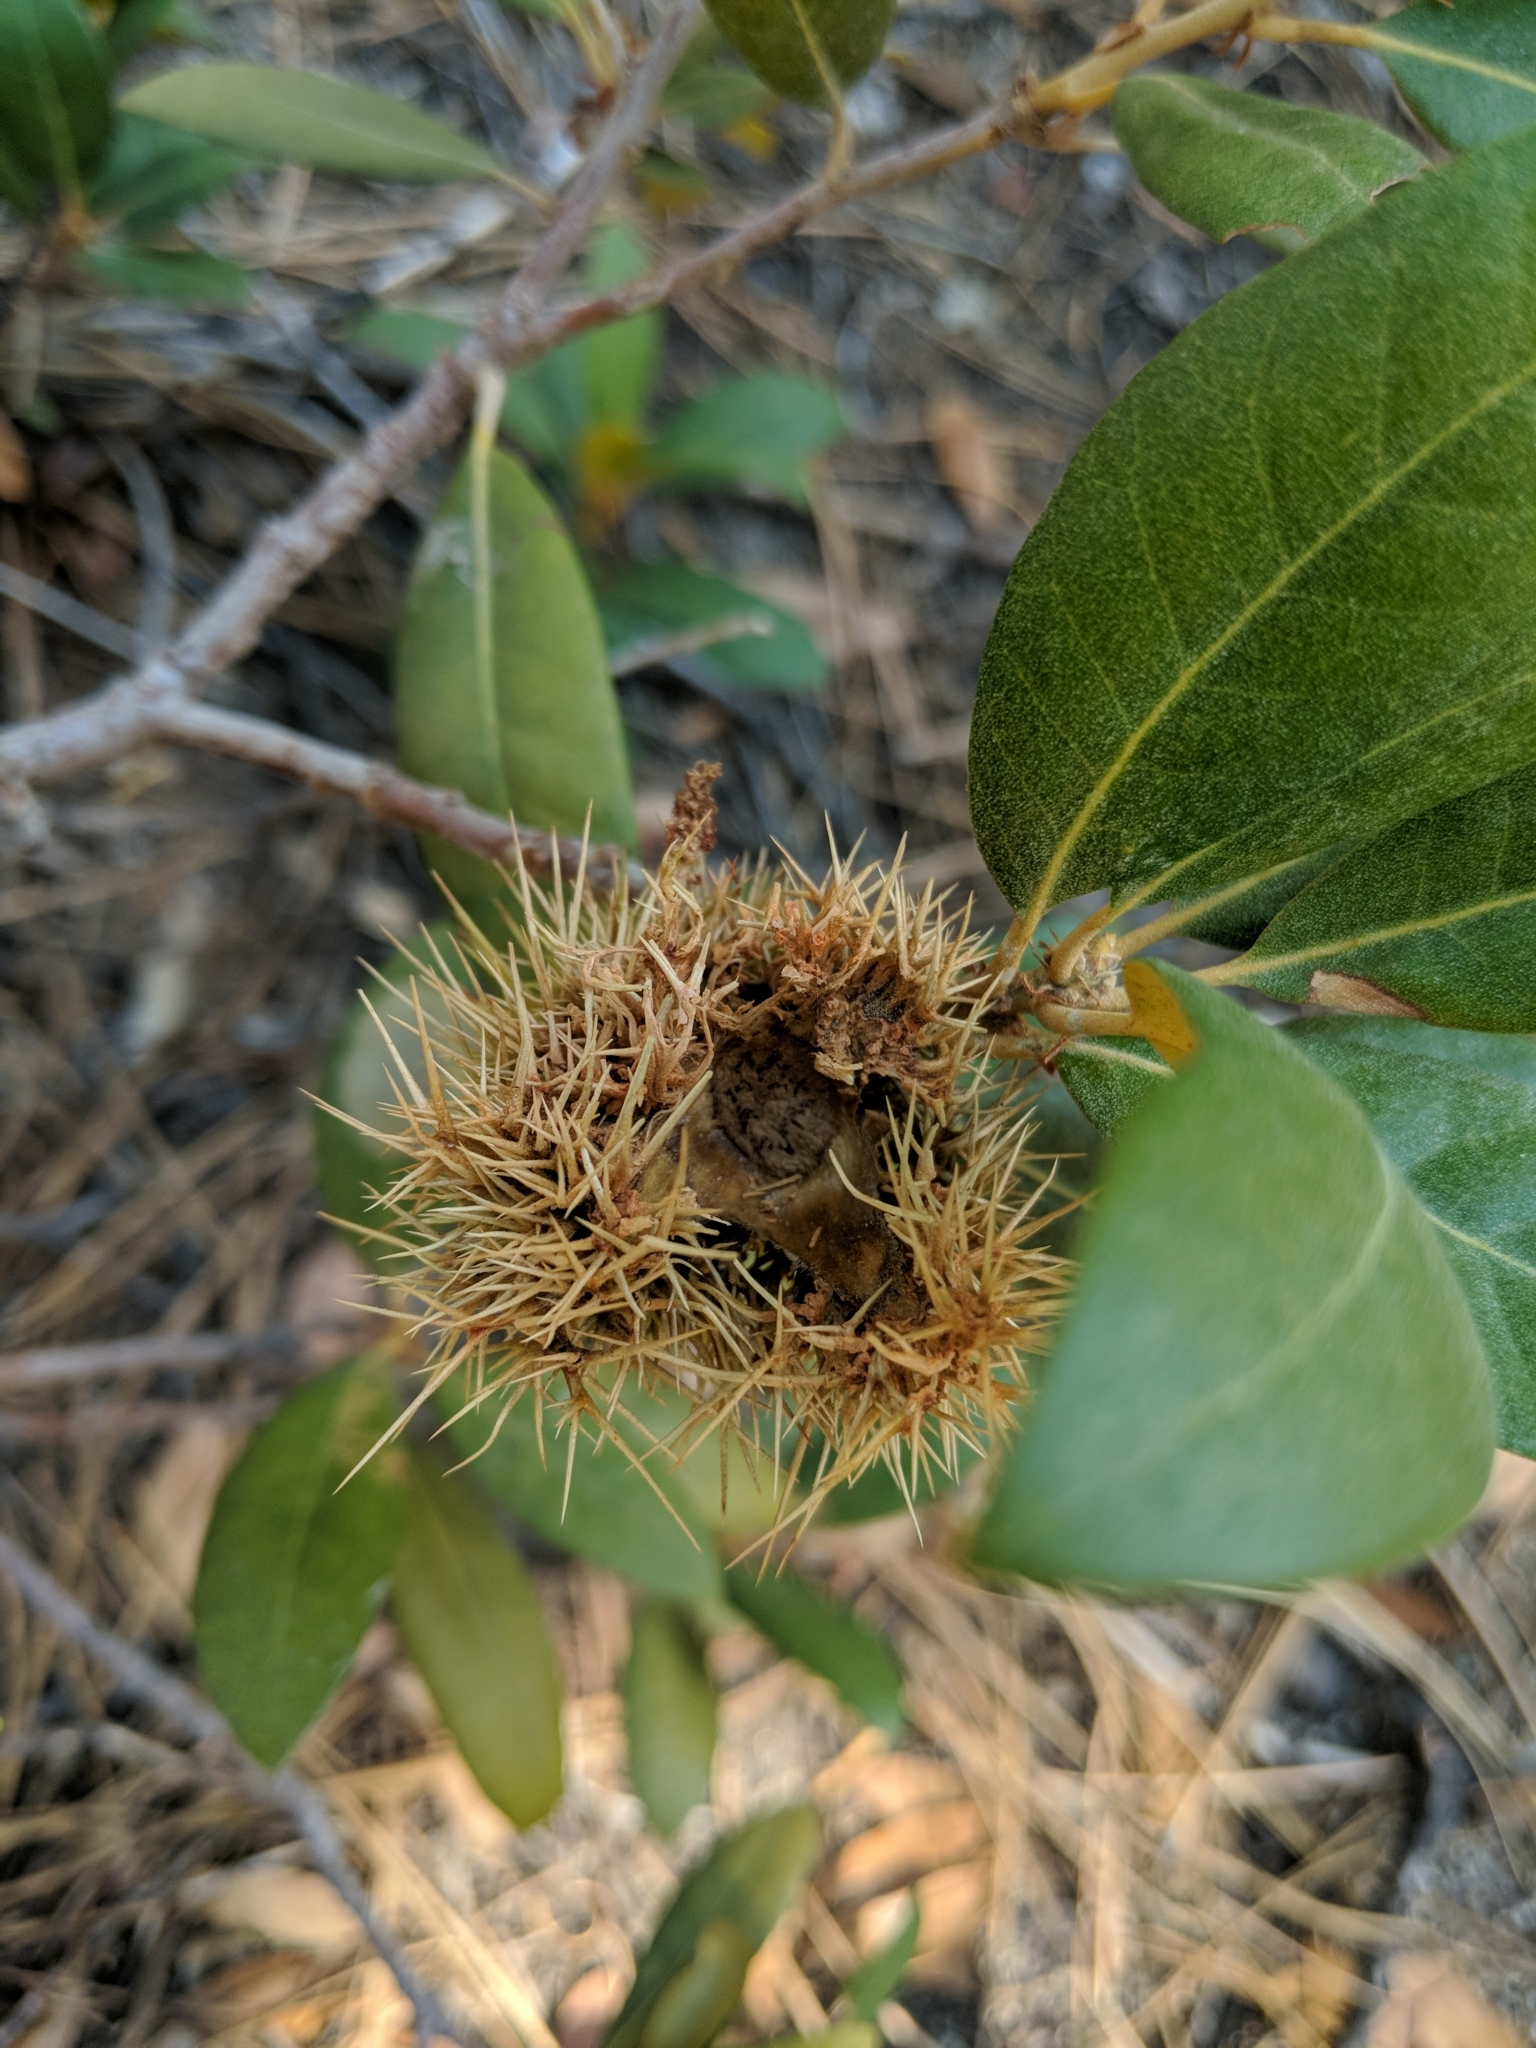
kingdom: Plantae
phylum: Tracheophyta
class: Magnoliopsida
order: Fagales
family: Fagaceae
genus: Chrysolepis
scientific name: Chrysolepis sempervirens
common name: Bush chinquapin
